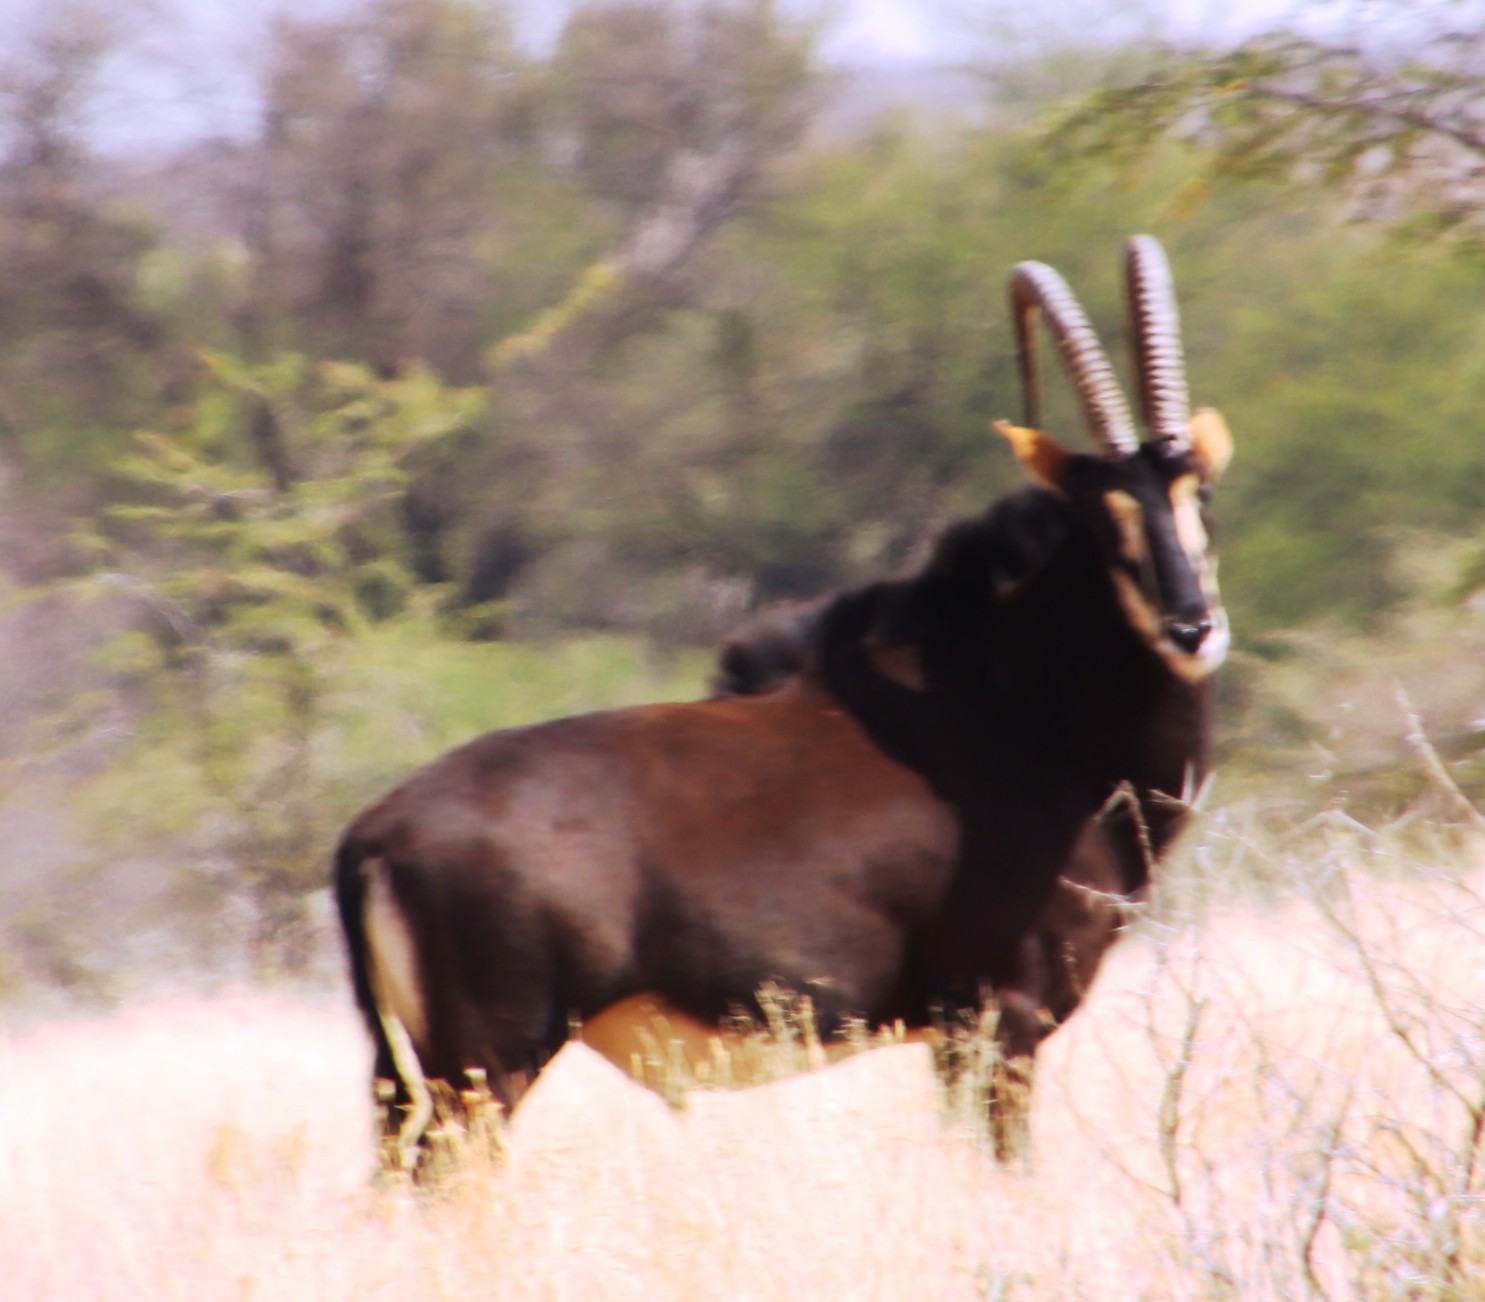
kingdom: Animalia
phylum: Chordata
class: Mammalia
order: Artiodactyla
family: Bovidae
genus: Hippotragus
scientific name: Hippotragus niger
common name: Sable antelope
